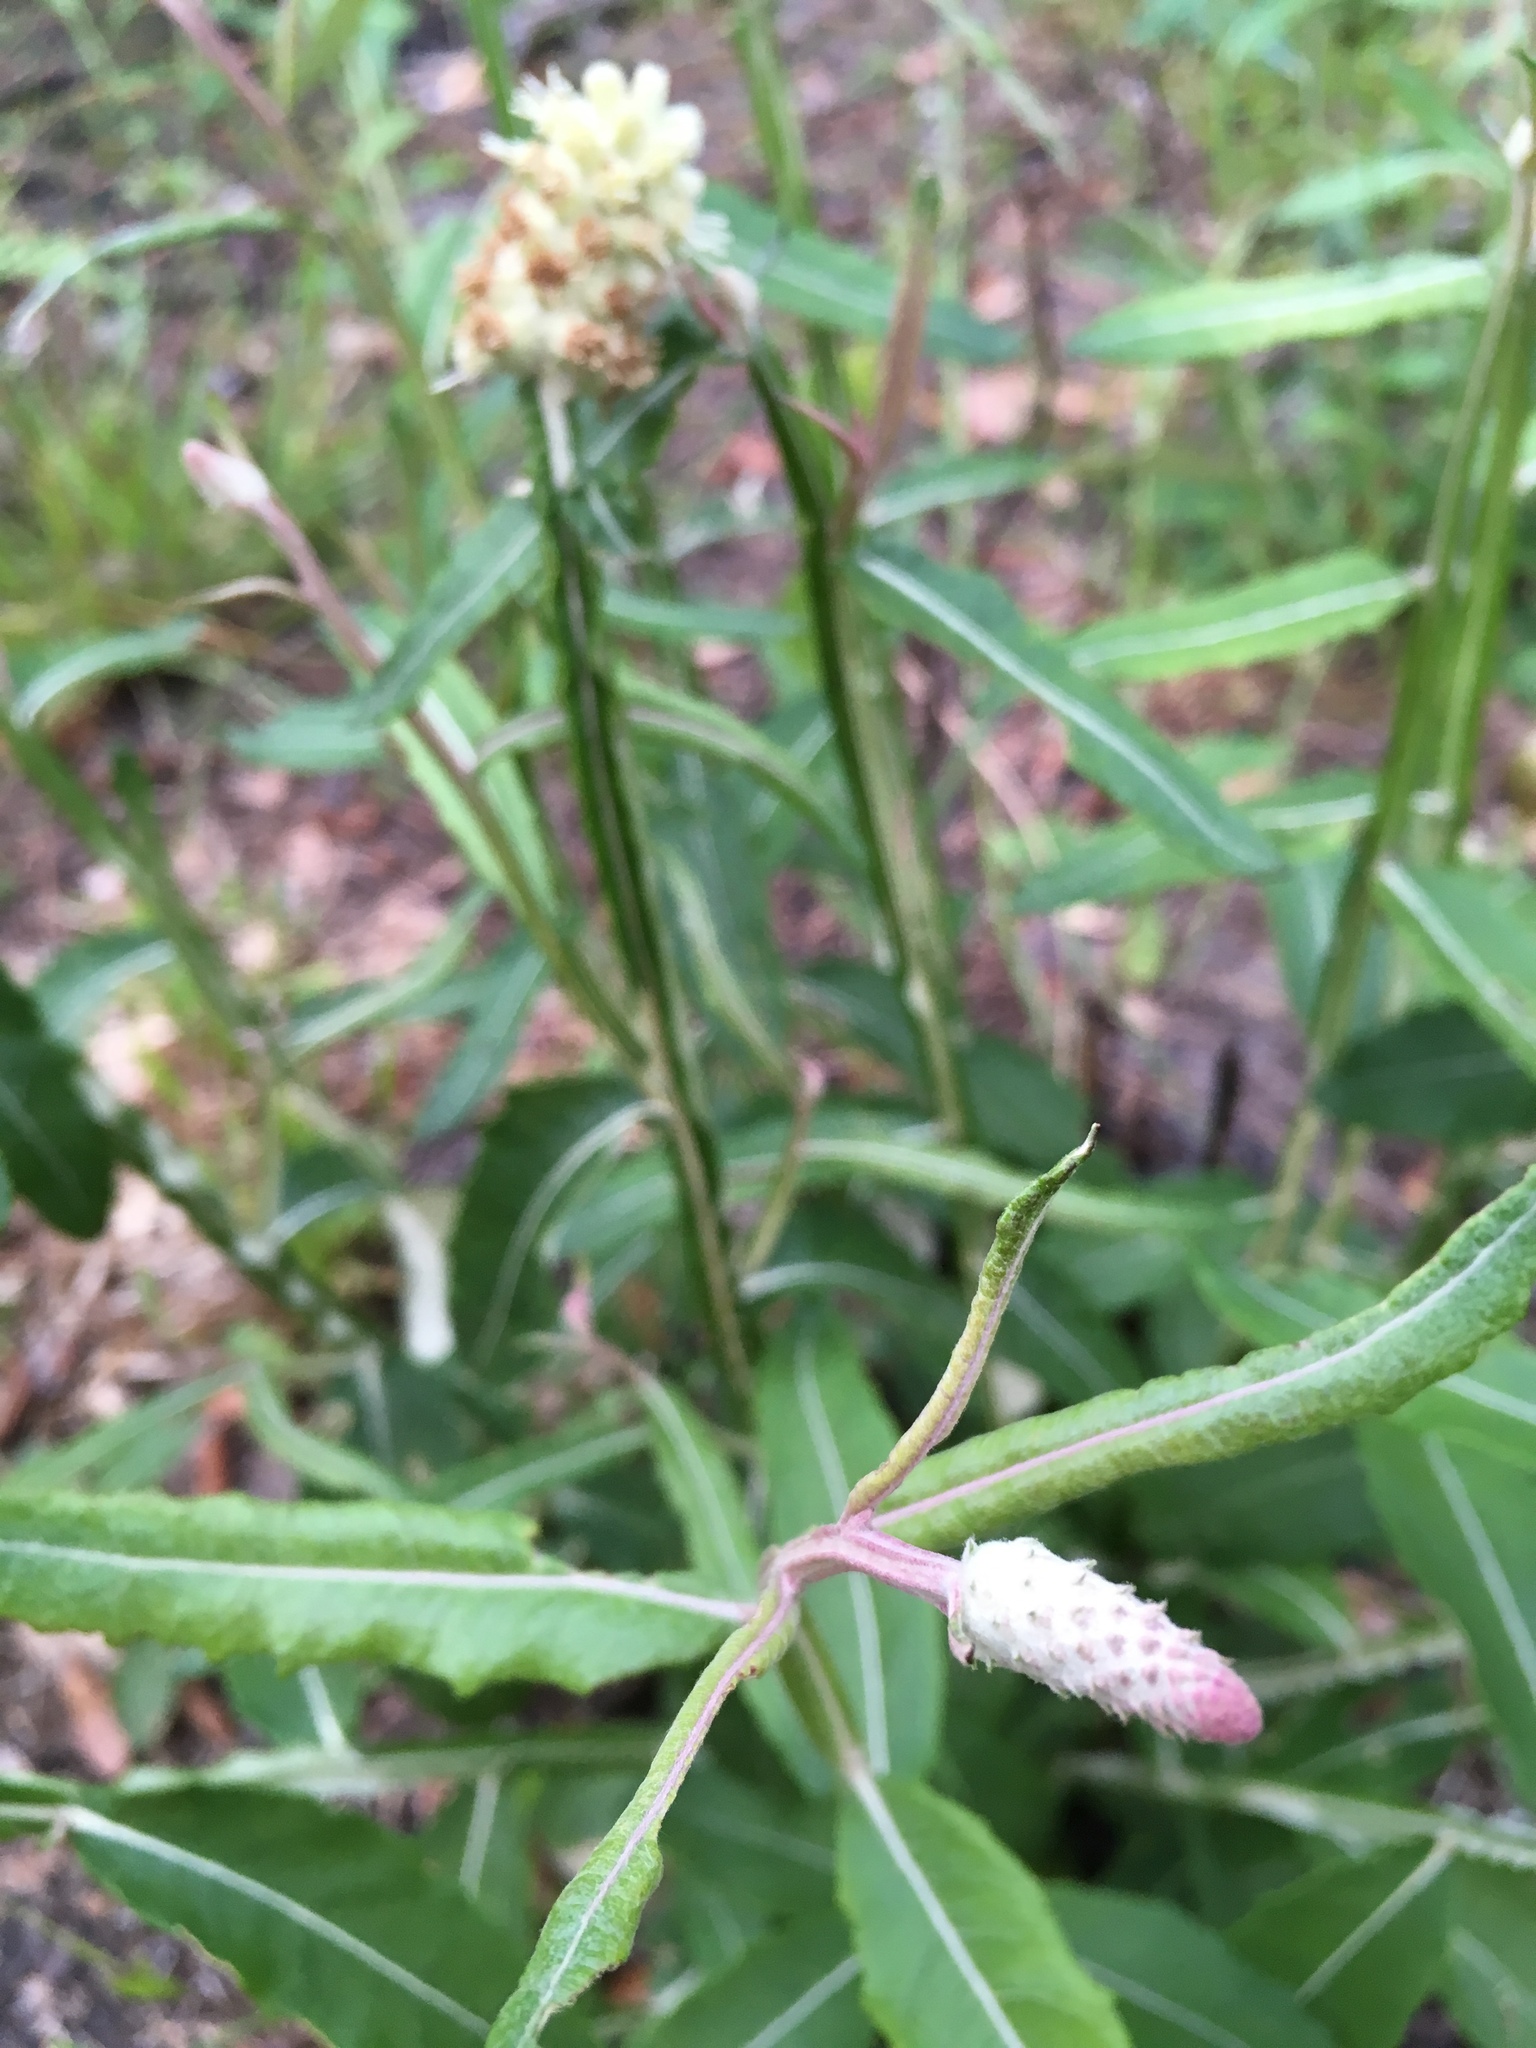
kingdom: Plantae
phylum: Tracheophyta
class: Magnoliopsida
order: Asterales
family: Asteraceae
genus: Pterocaulon
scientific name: Pterocaulon pycnostachyum
